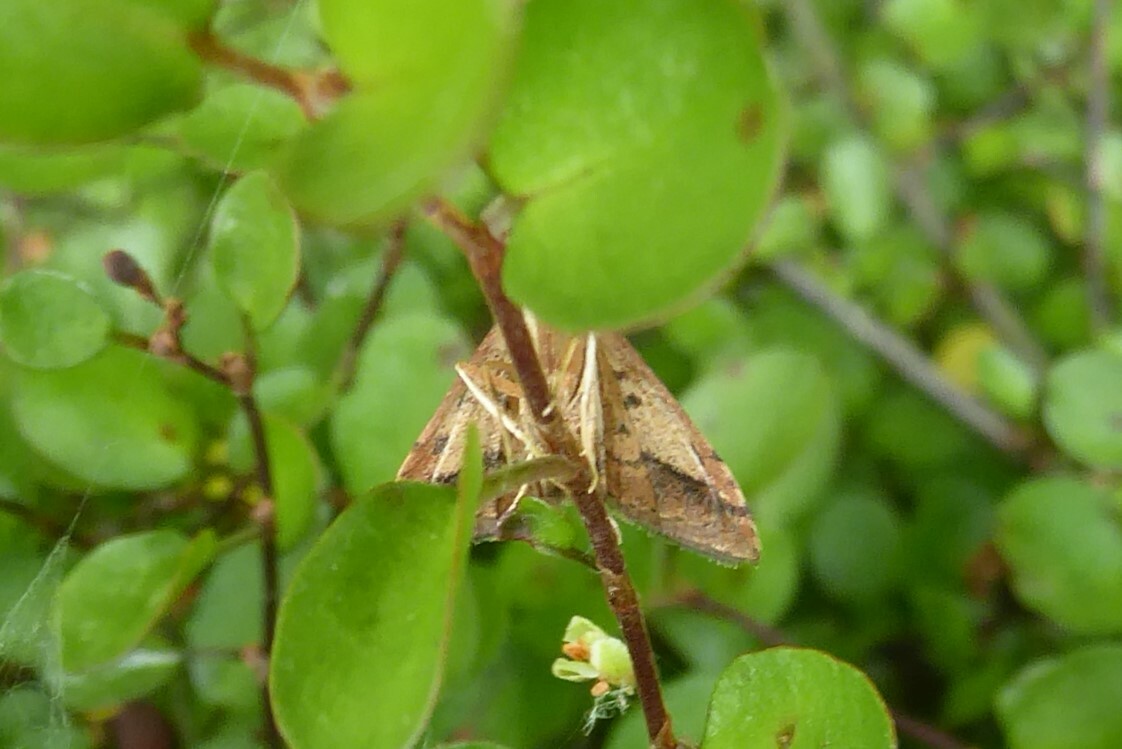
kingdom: Animalia
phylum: Arthropoda
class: Insecta
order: Lepidoptera
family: Crambidae
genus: Udea
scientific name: Udea Mnesictena flavidalis
